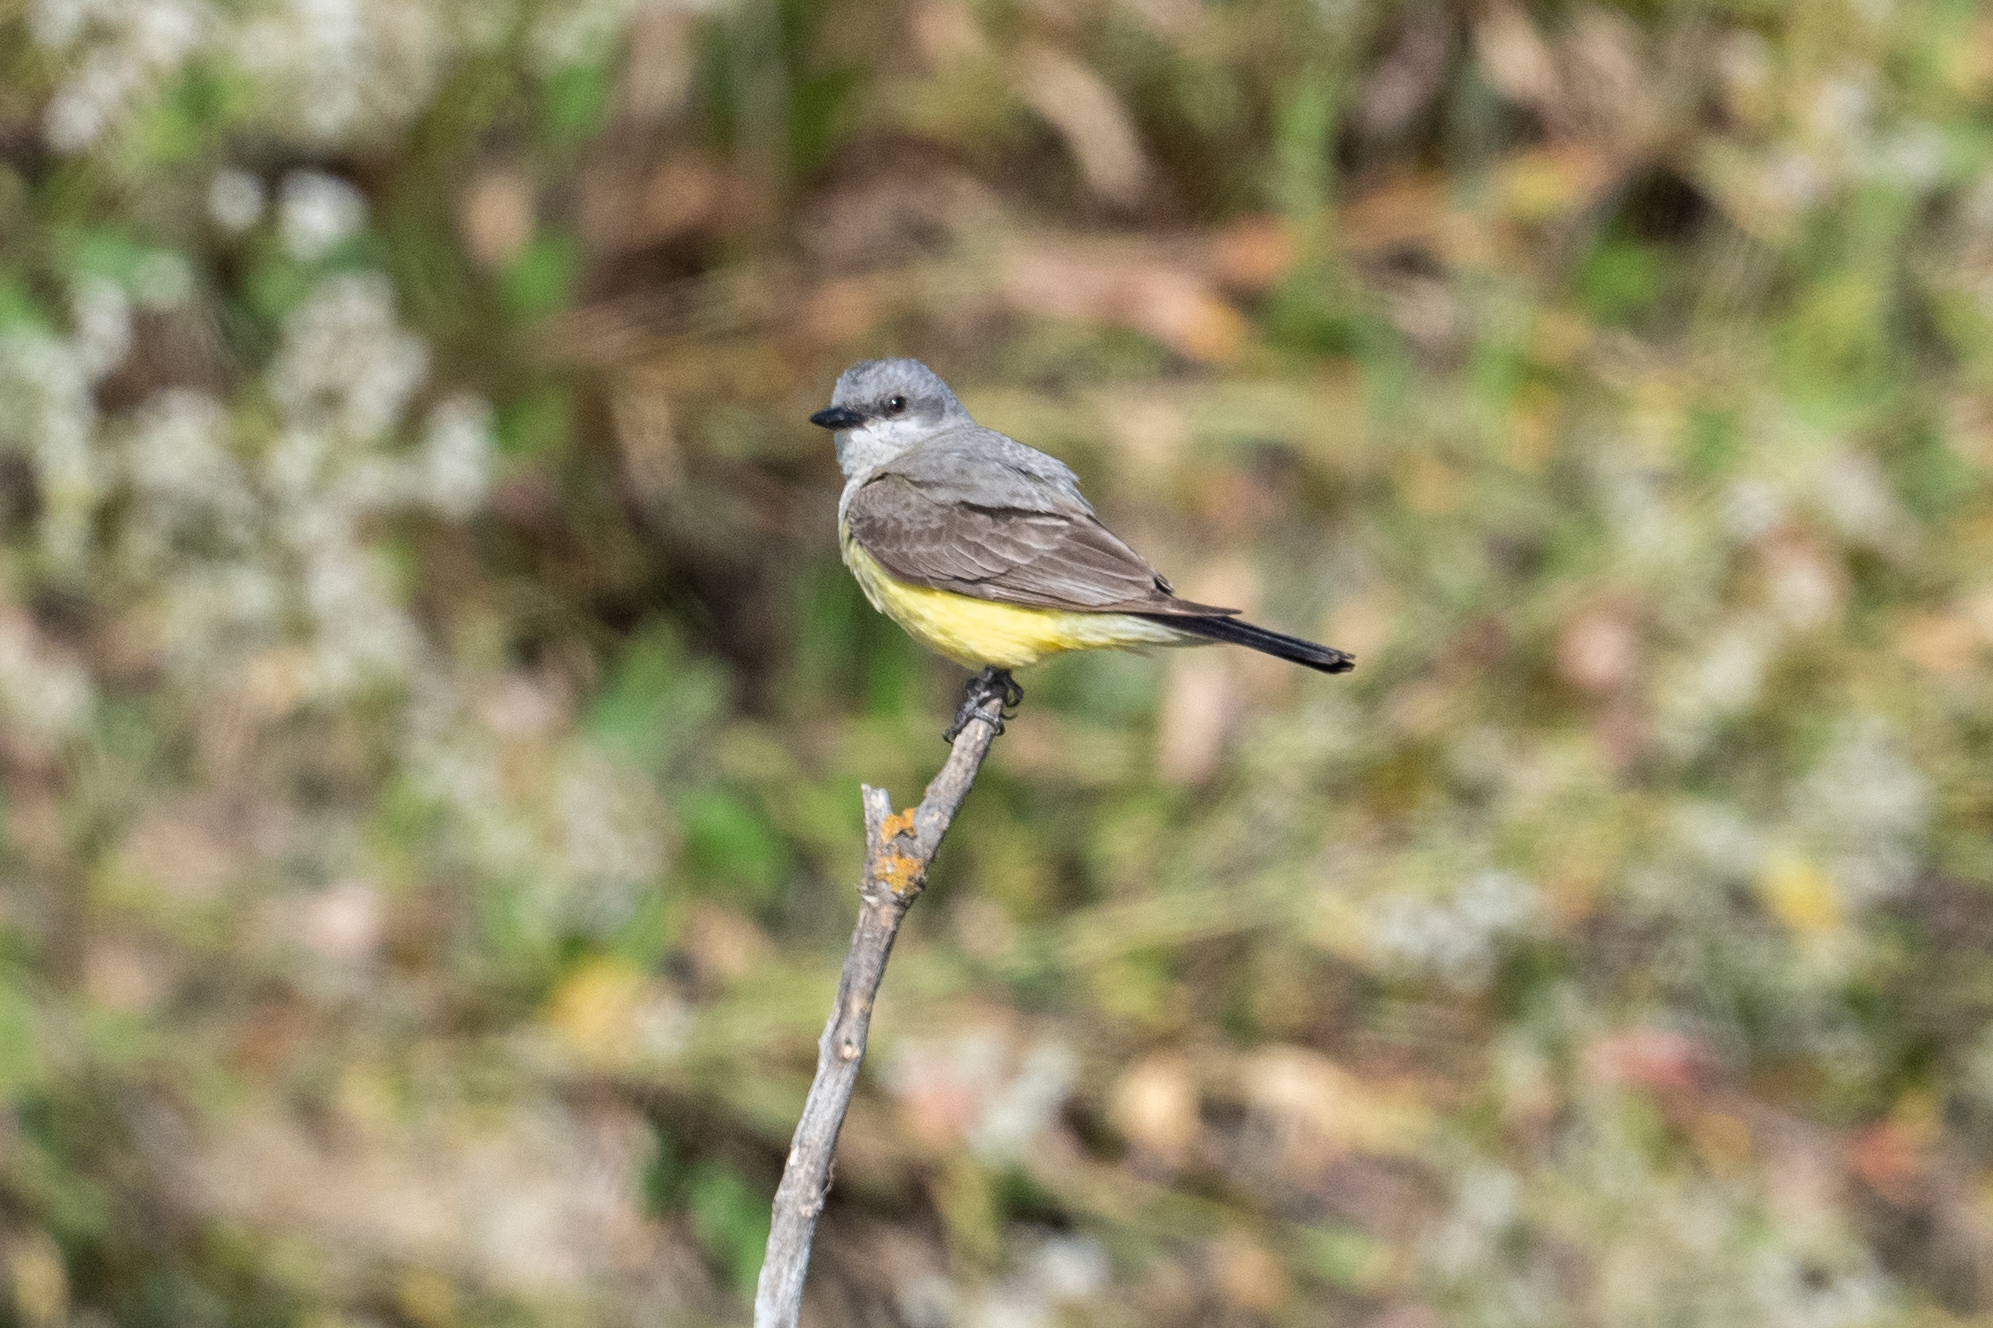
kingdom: Animalia
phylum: Chordata
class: Aves
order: Passeriformes
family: Tyrannidae
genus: Tyrannus
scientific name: Tyrannus verticalis
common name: Western kingbird
